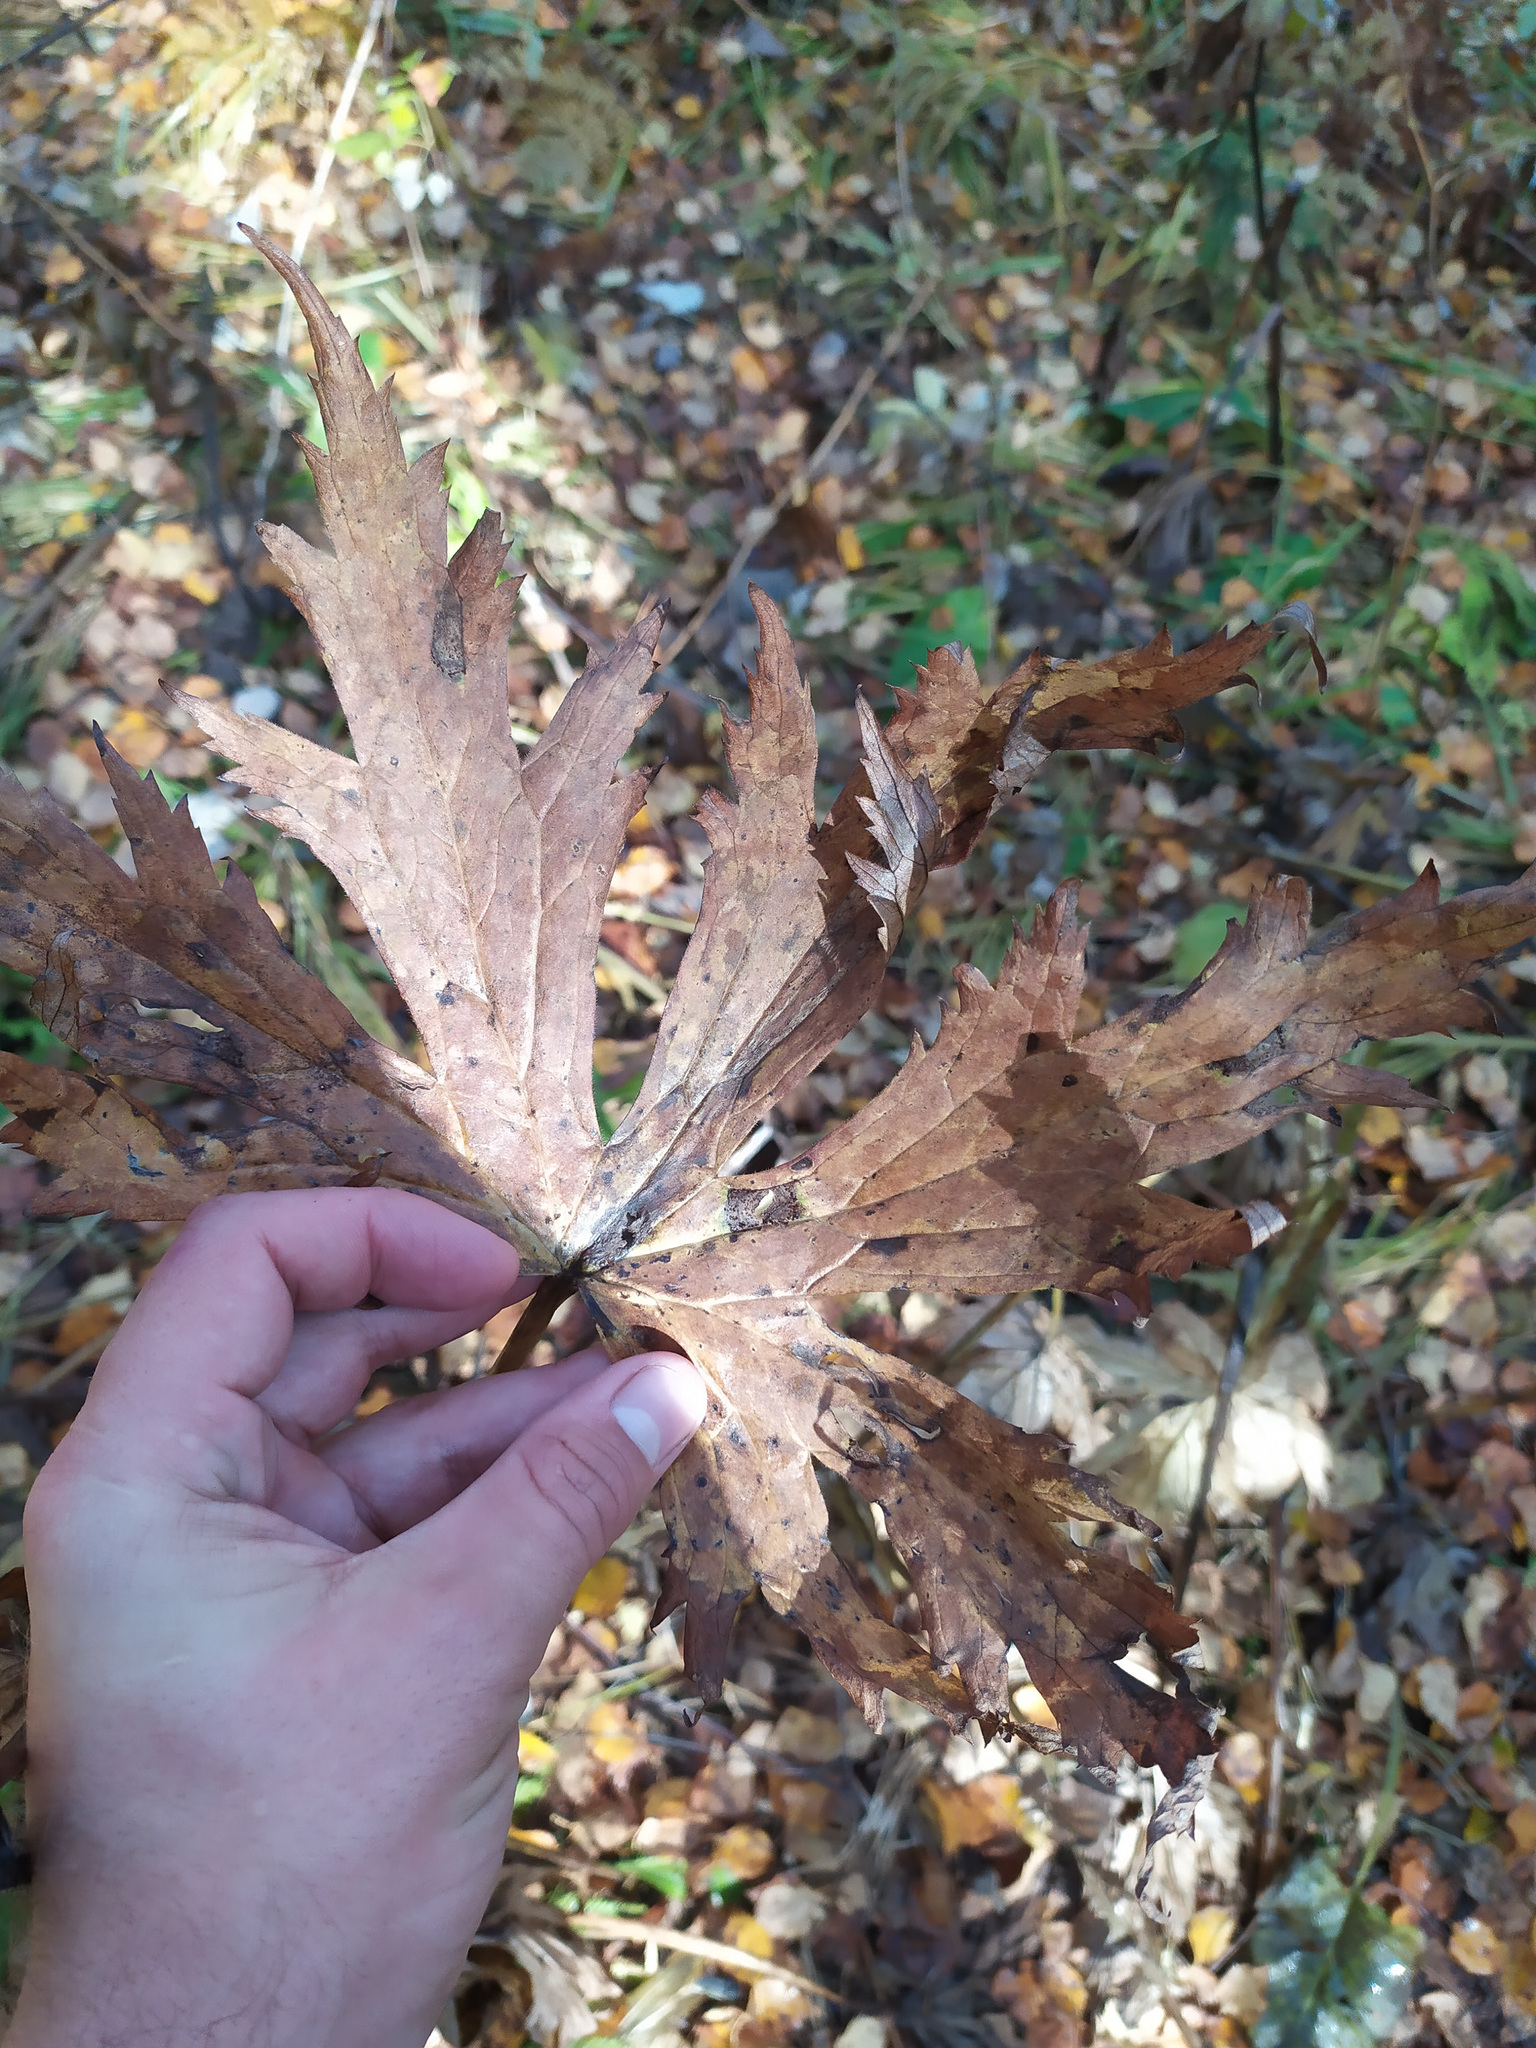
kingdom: Plantae
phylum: Tracheophyta
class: Magnoliopsida
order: Ranunculales
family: Ranunculaceae
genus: Aconitum
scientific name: Aconitum septentrionale
